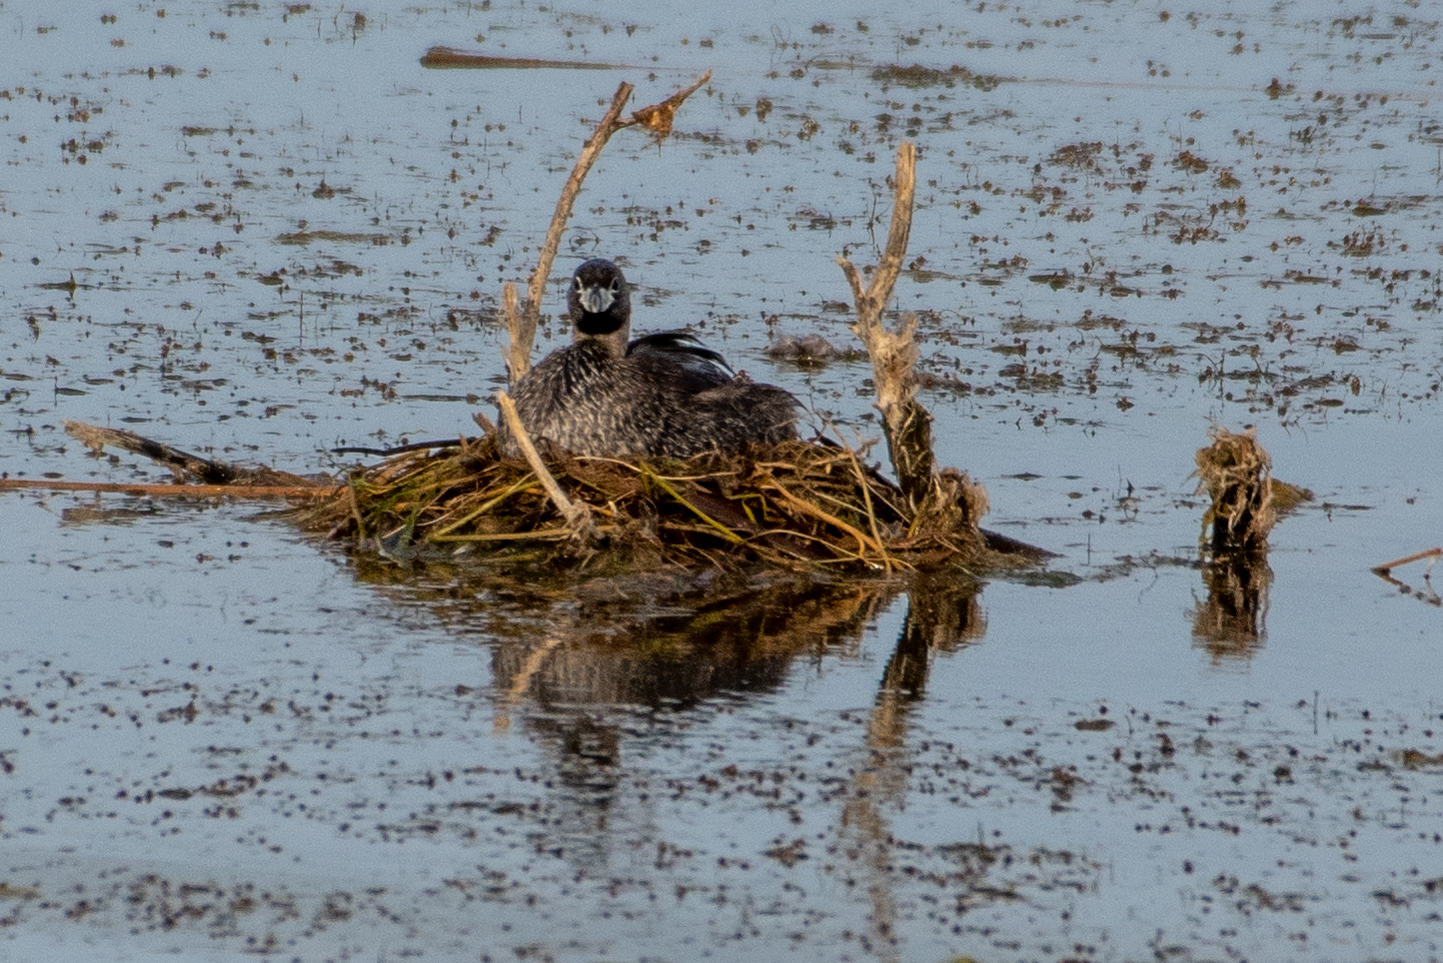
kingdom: Animalia
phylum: Chordata
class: Aves
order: Podicipediformes
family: Podicipedidae
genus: Podilymbus
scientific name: Podilymbus podiceps
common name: Pied-billed grebe
